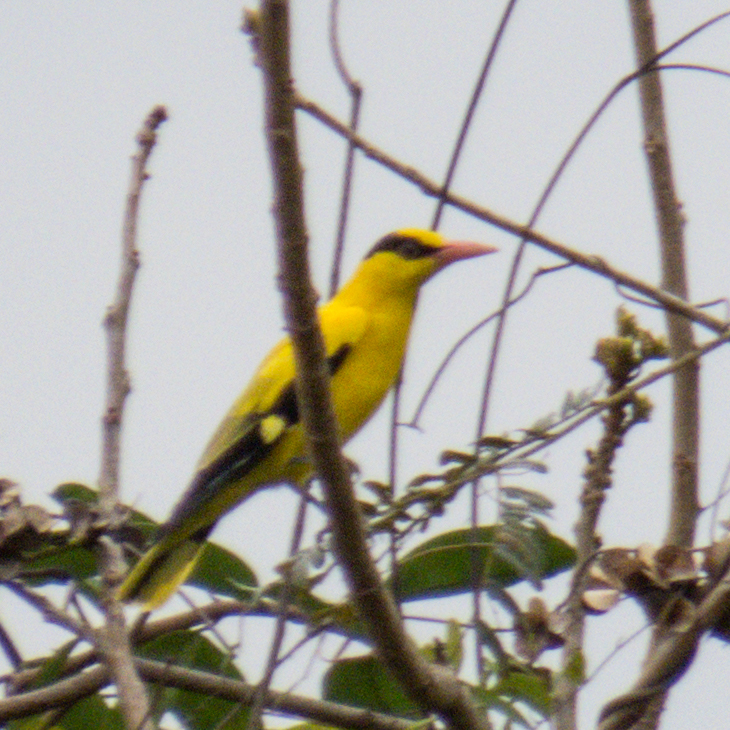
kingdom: Animalia
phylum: Chordata
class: Aves
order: Passeriformes
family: Oriolidae
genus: Oriolus
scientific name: Oriolus chinensis
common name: Black-naped oriole
